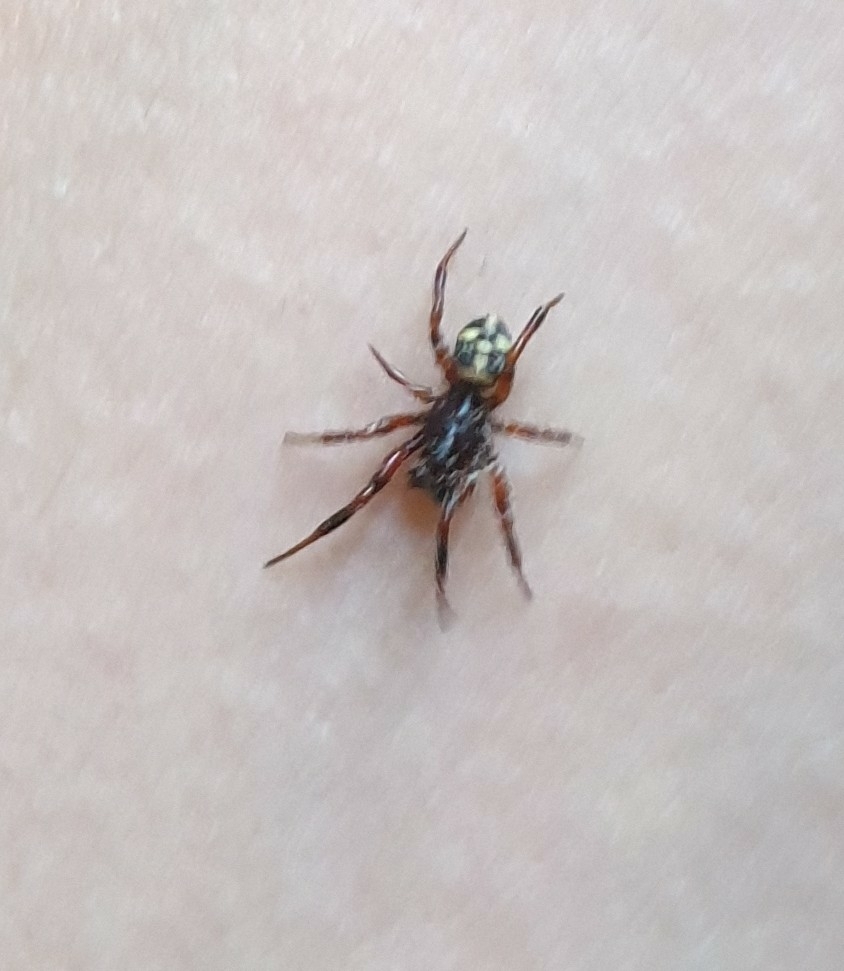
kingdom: Animalia
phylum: Arthropoda
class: Arachnida
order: Araneae
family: Theridiidae
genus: Asagena
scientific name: Asagena phalerata
